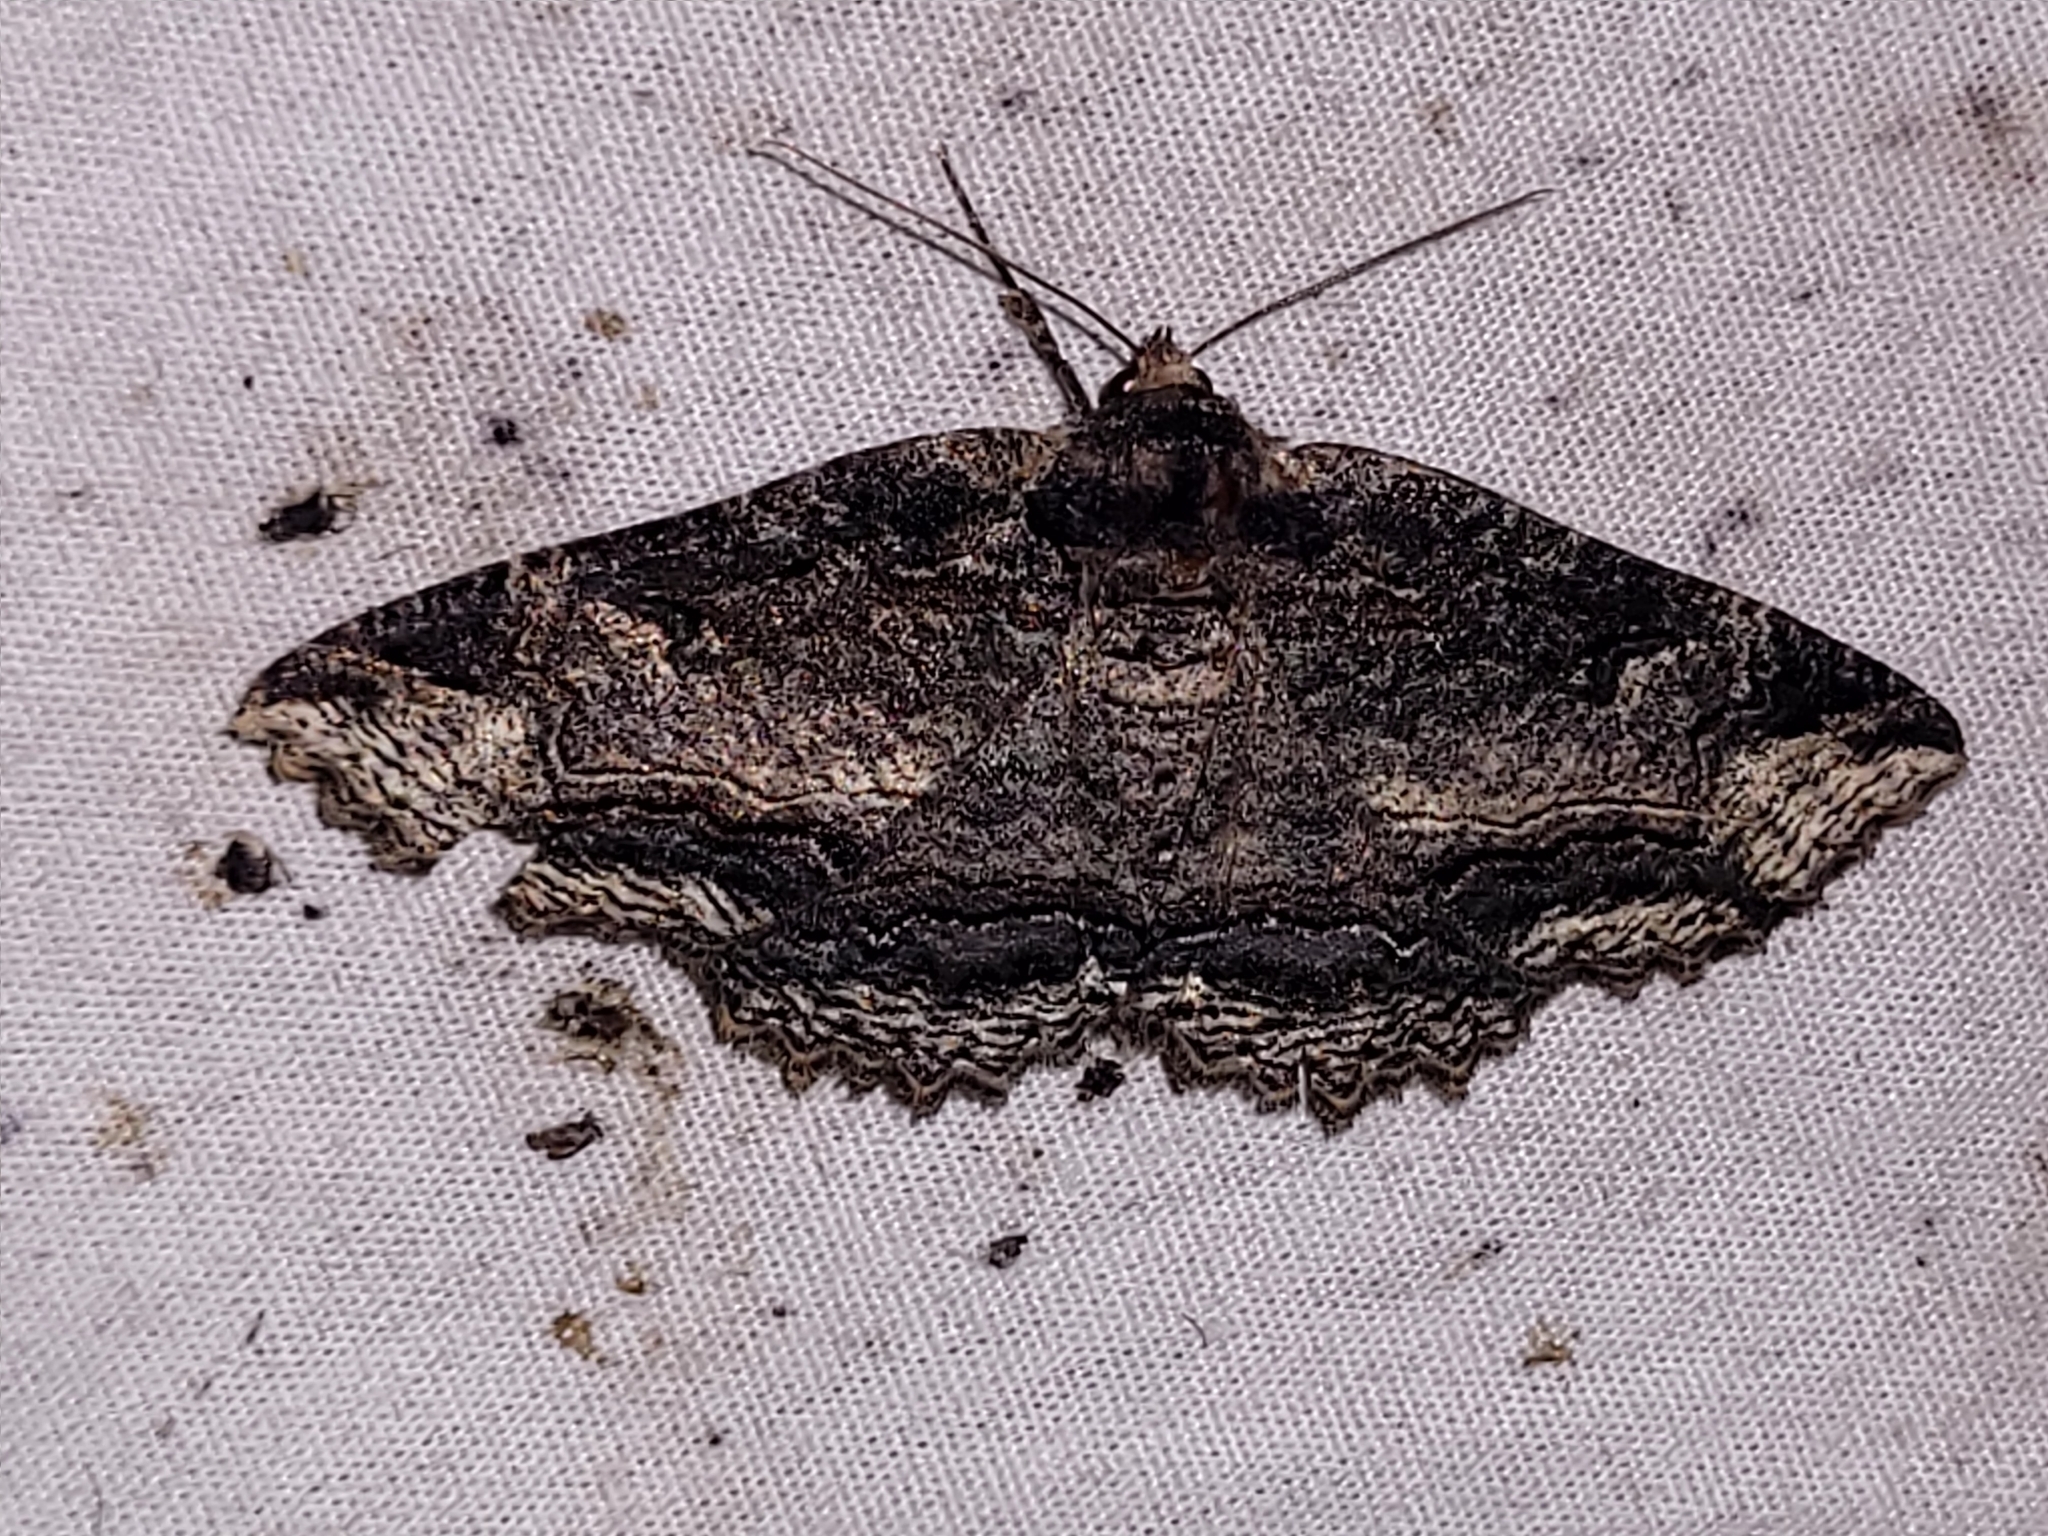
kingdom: Animalia
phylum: Arthropoda
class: Insecta
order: Lepidoptera
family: Erebidae
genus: Zale
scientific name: Zale minerea
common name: Colorful zale moth
